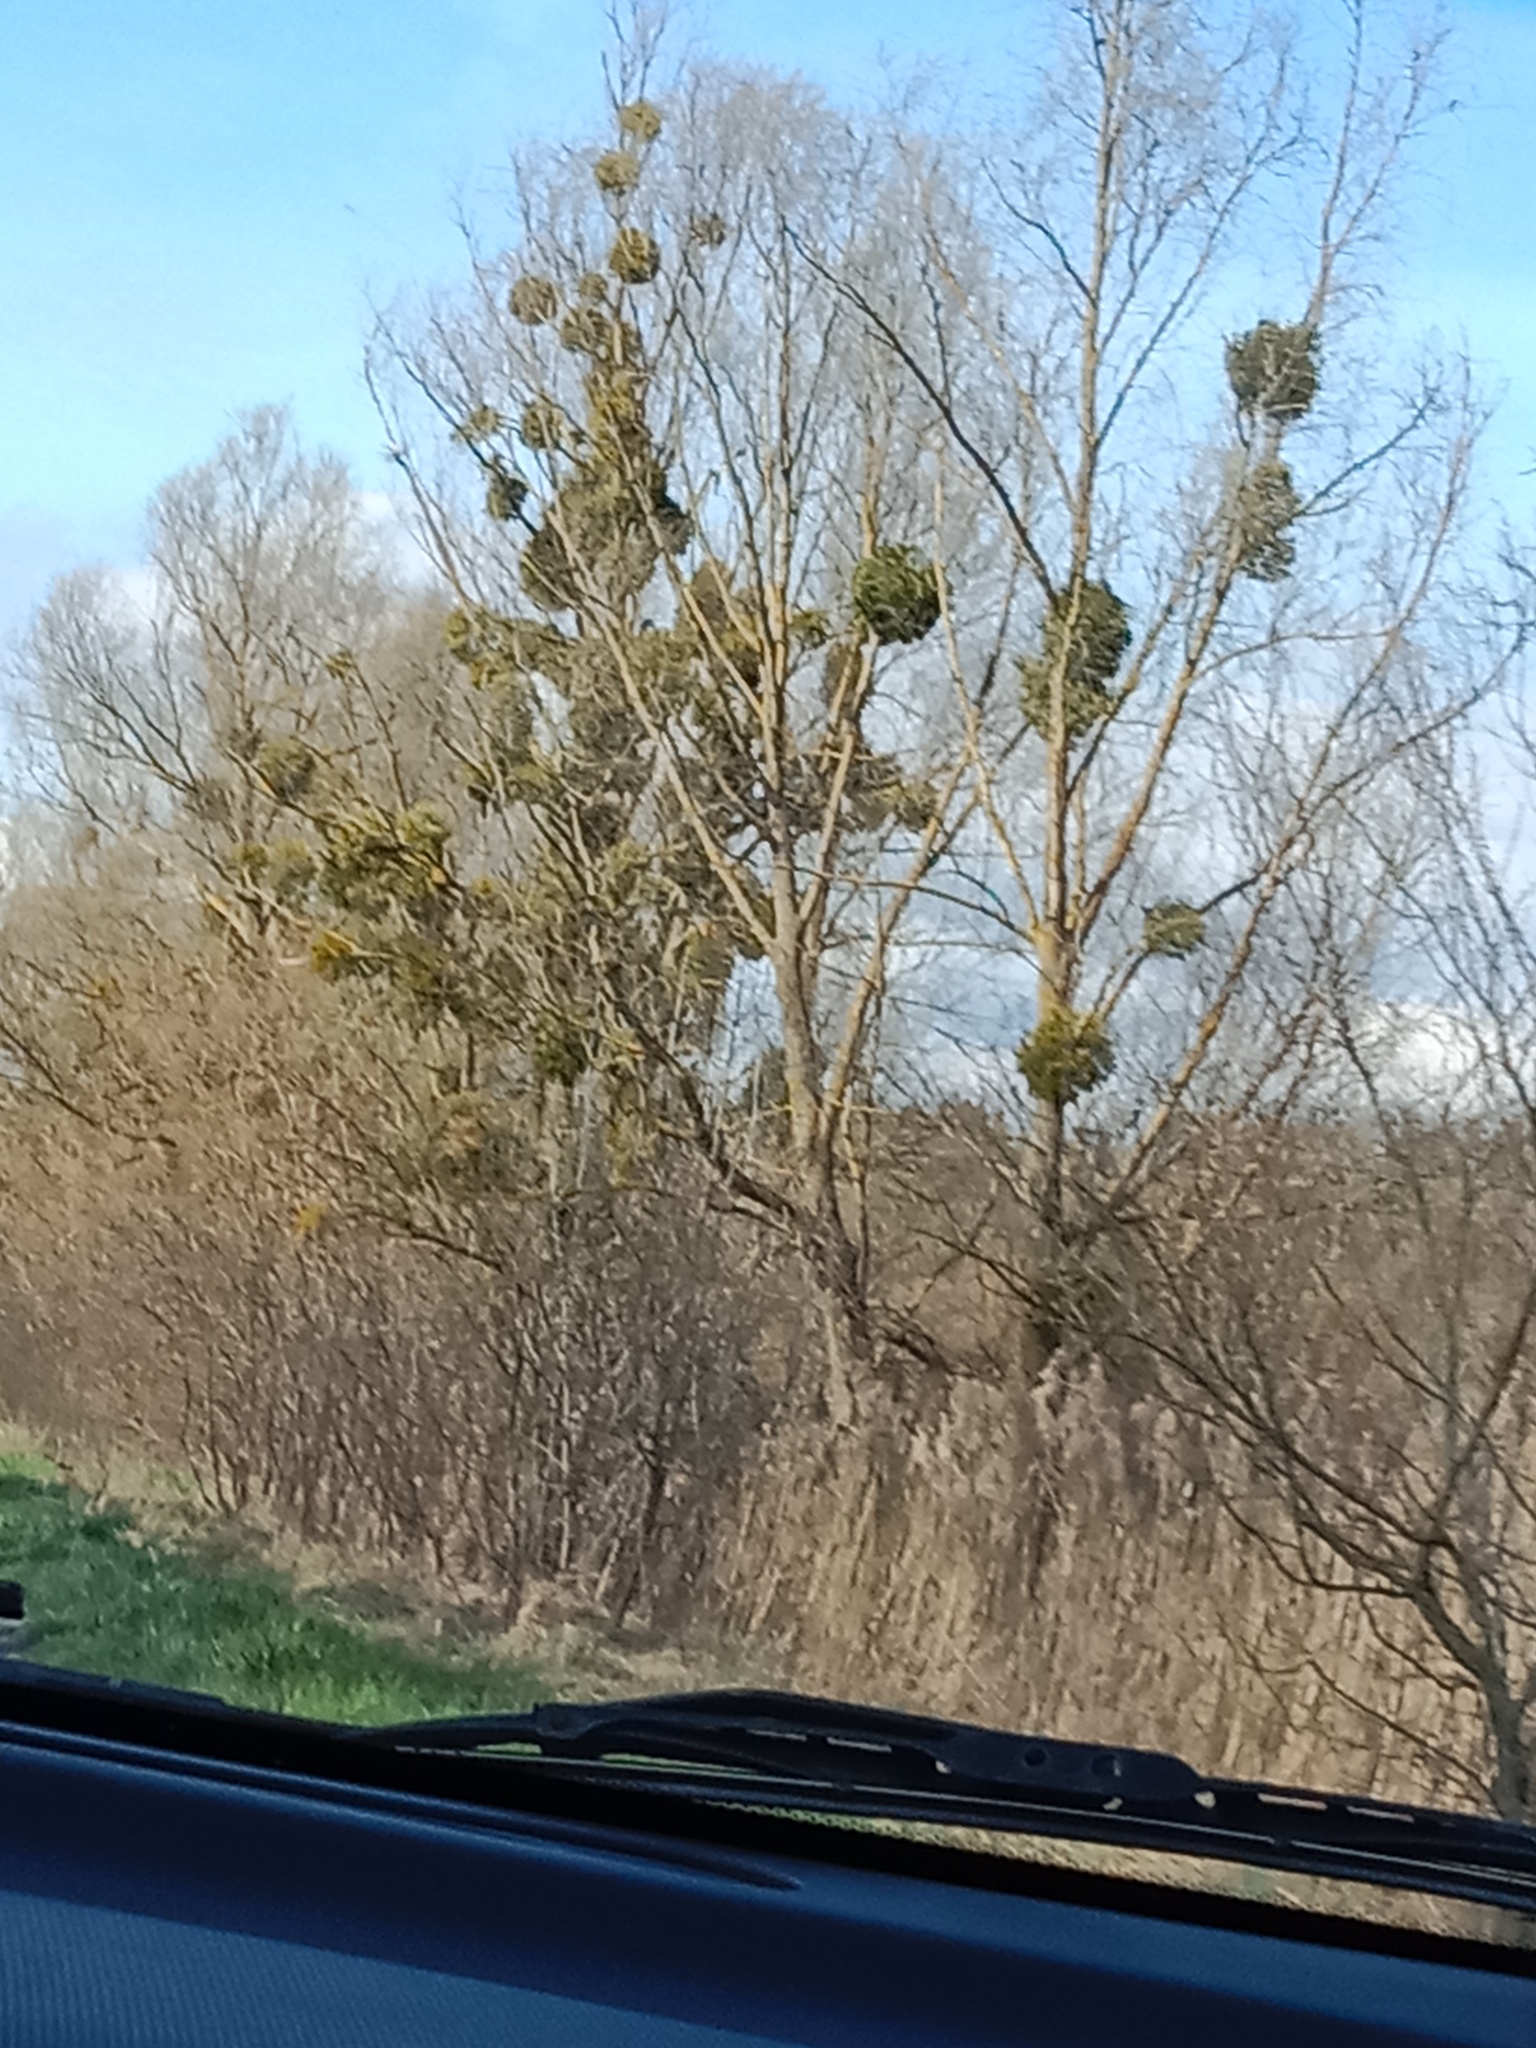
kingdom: Plantae
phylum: Tracheophyta
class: Magnoliopsida
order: Santalales
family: Viscaceae
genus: Viscum
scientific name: Viscum album
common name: Mistletoe
